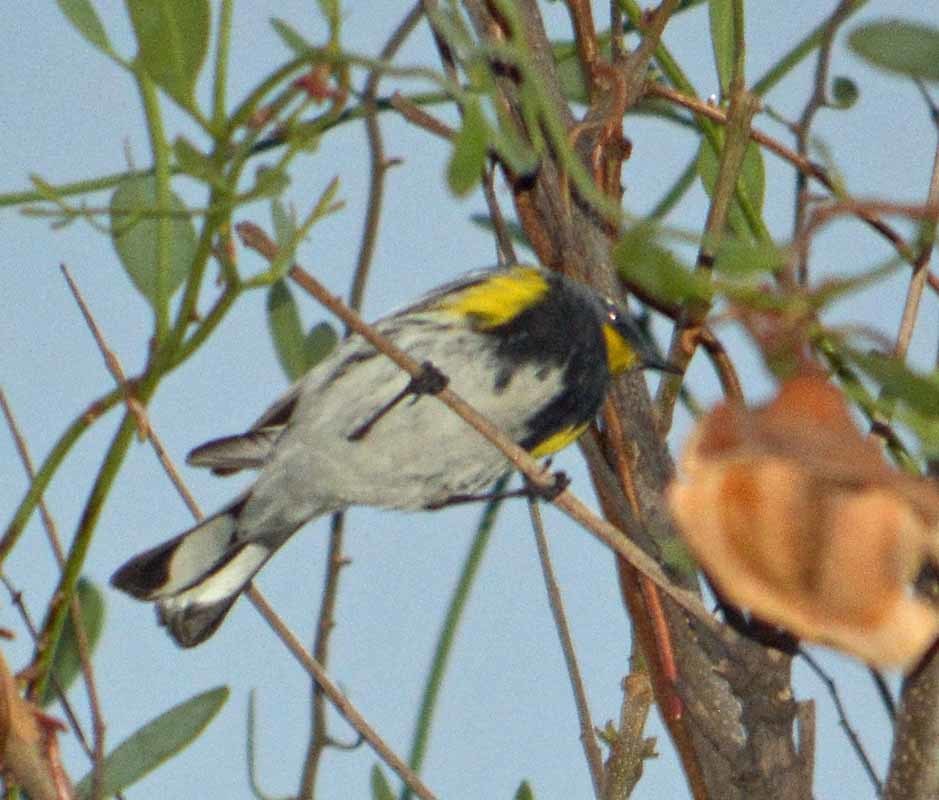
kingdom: Animalia
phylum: Chordata
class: Aves
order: Passeriformes
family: Parulidae
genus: Setophaga
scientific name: Setophaga auduboni
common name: Audubon's warbler
